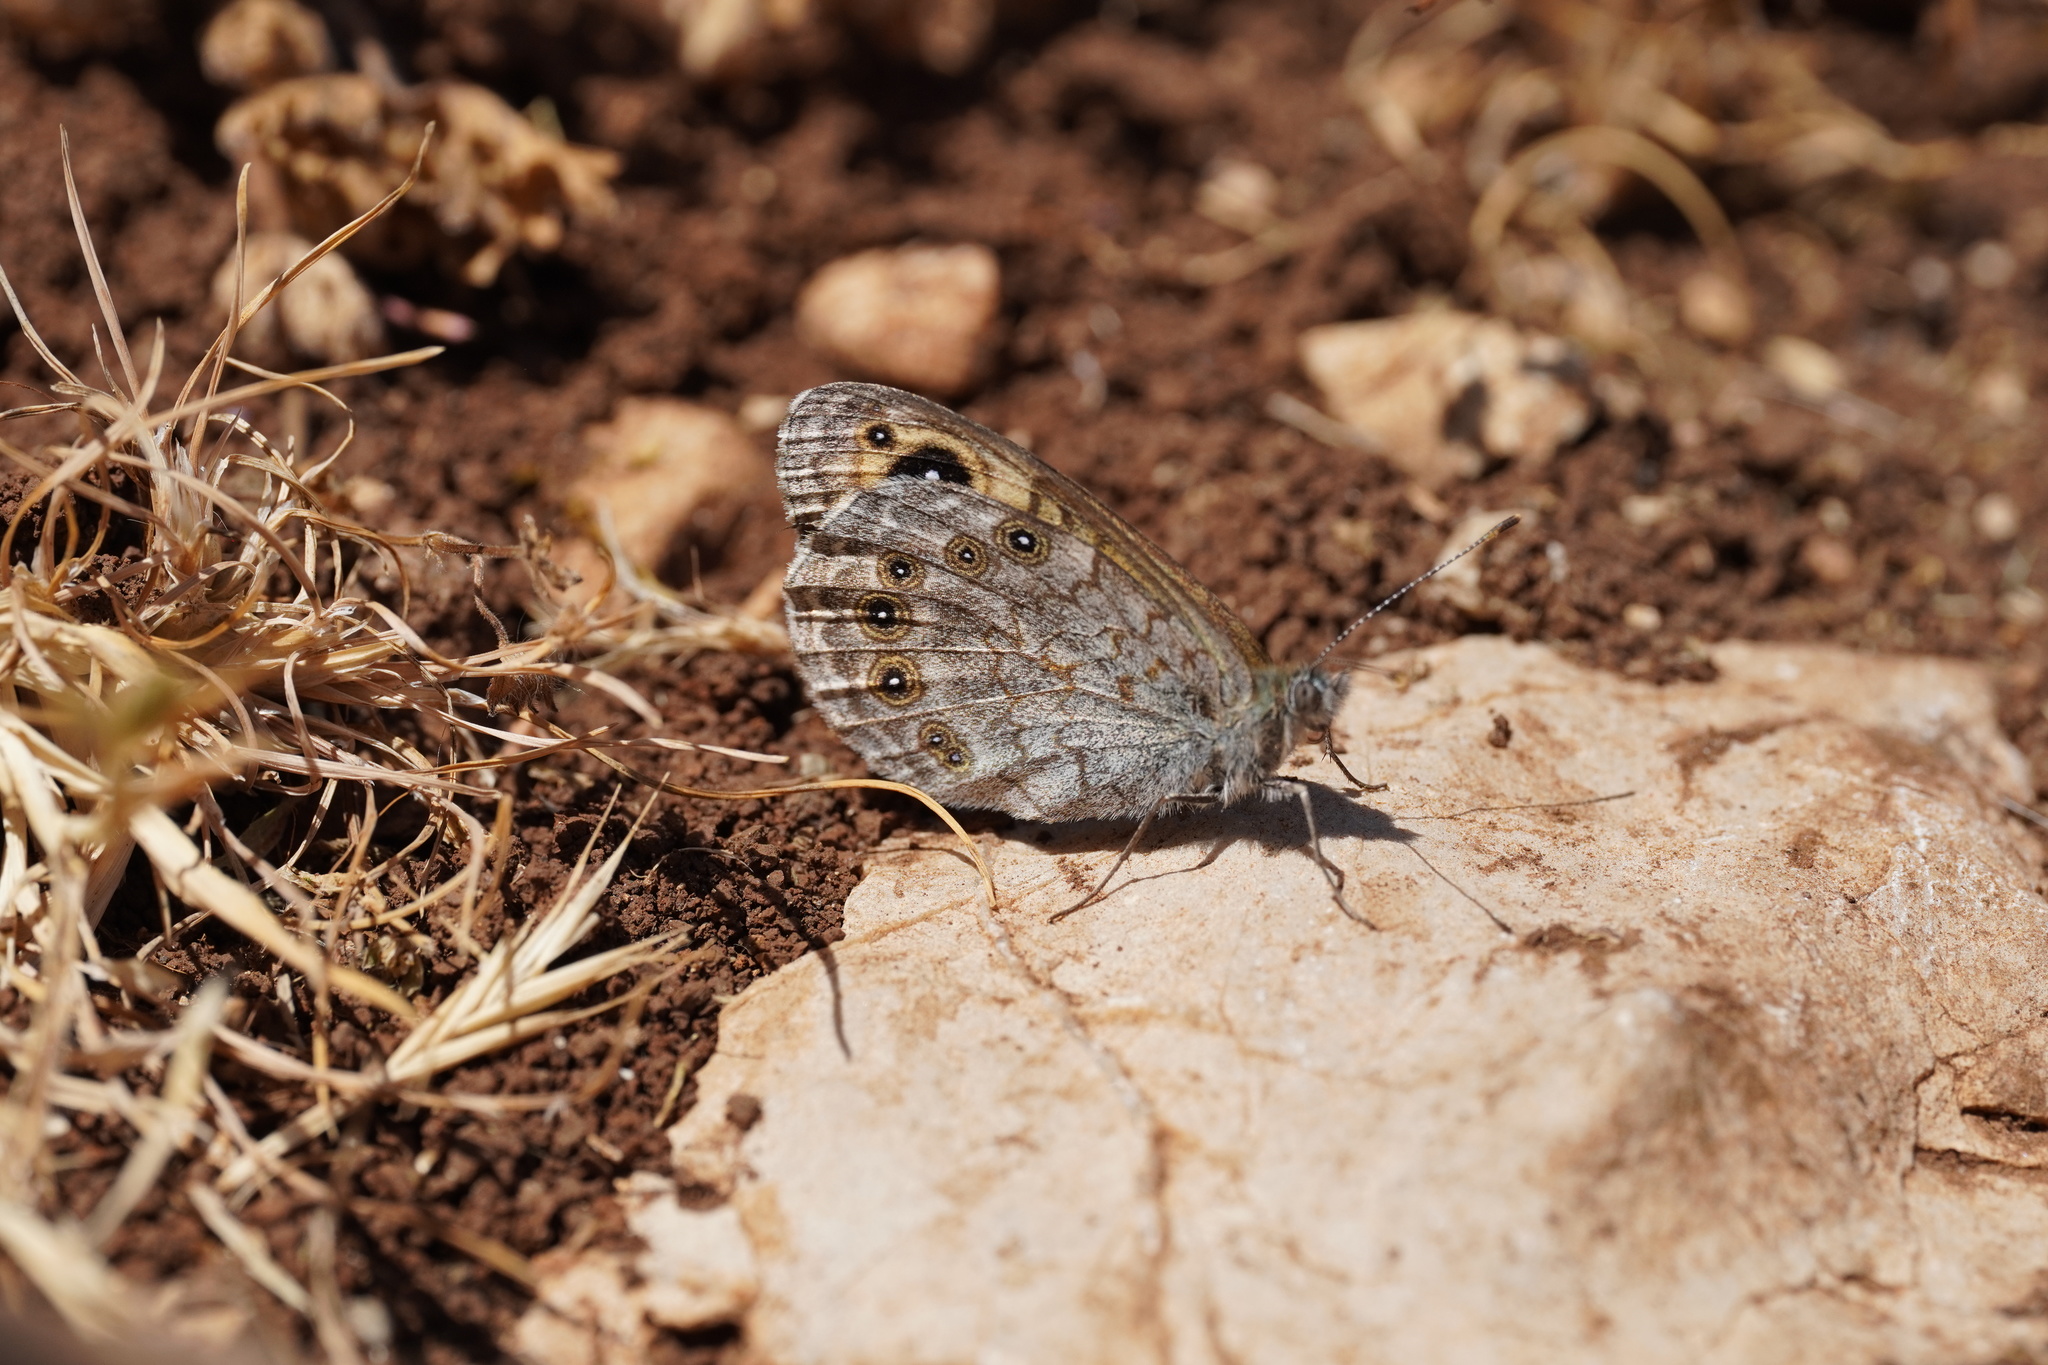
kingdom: Animalia
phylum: Arthropoda
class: Insecta
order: Lepidoptera
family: Nymphalidae
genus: Pararge
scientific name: Pararge Lasiommata maera
